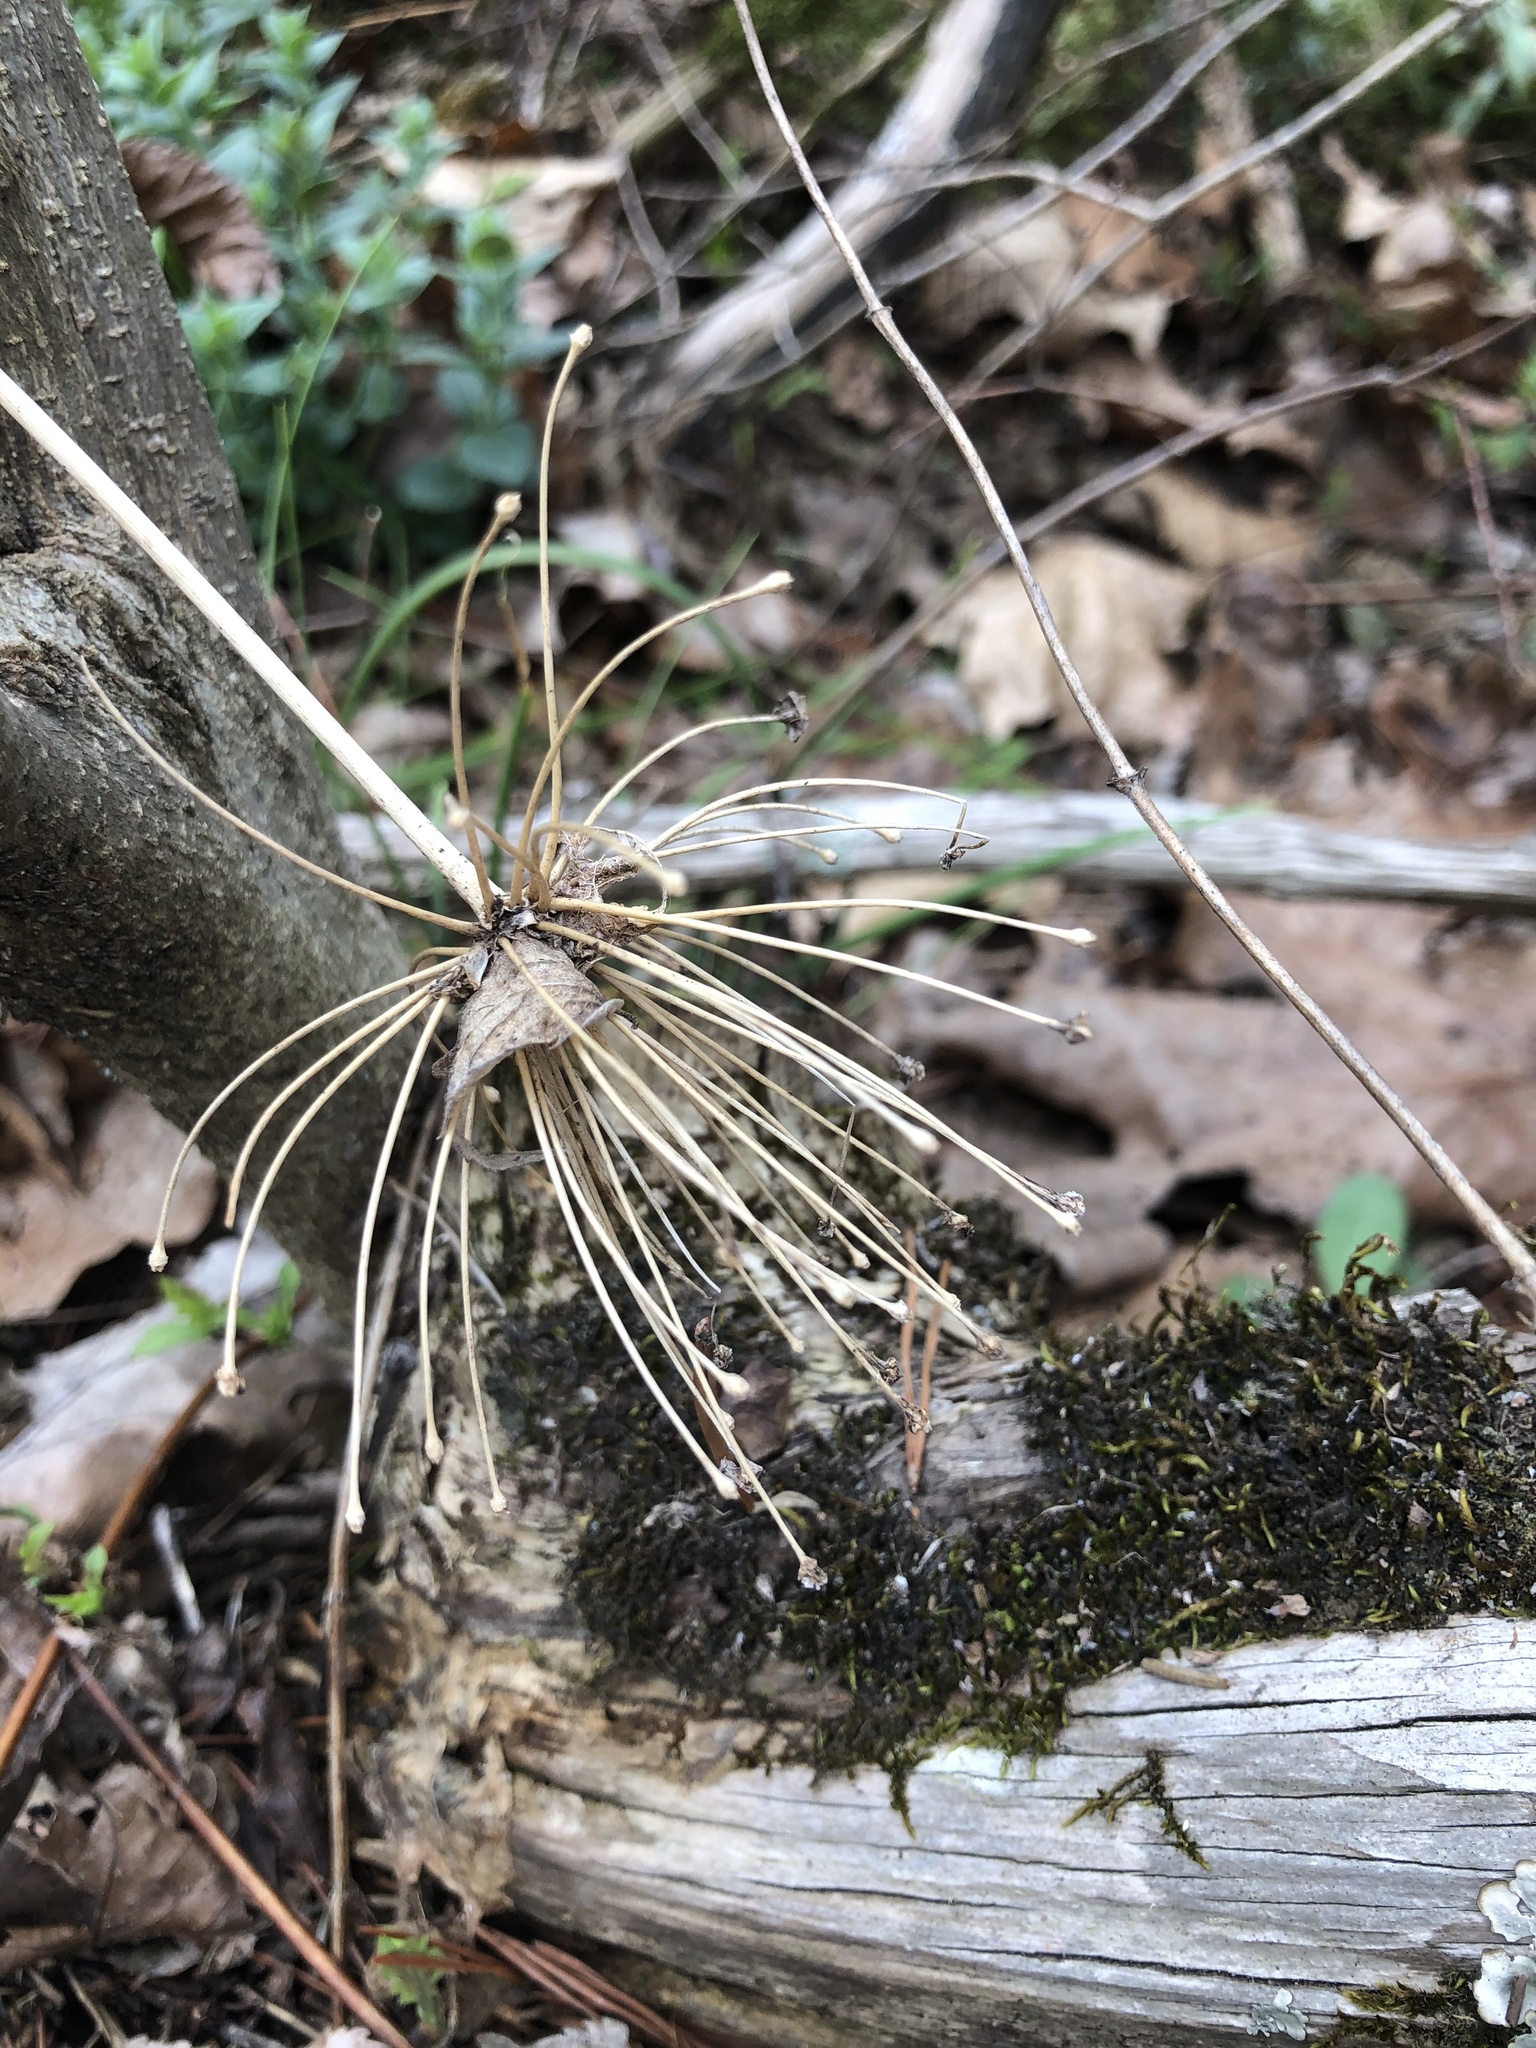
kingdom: Plantae
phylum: Tracheophyta
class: Liliopsida
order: Asparagales
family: Amaryllidaceae
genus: Allium
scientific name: Allium keeverae
